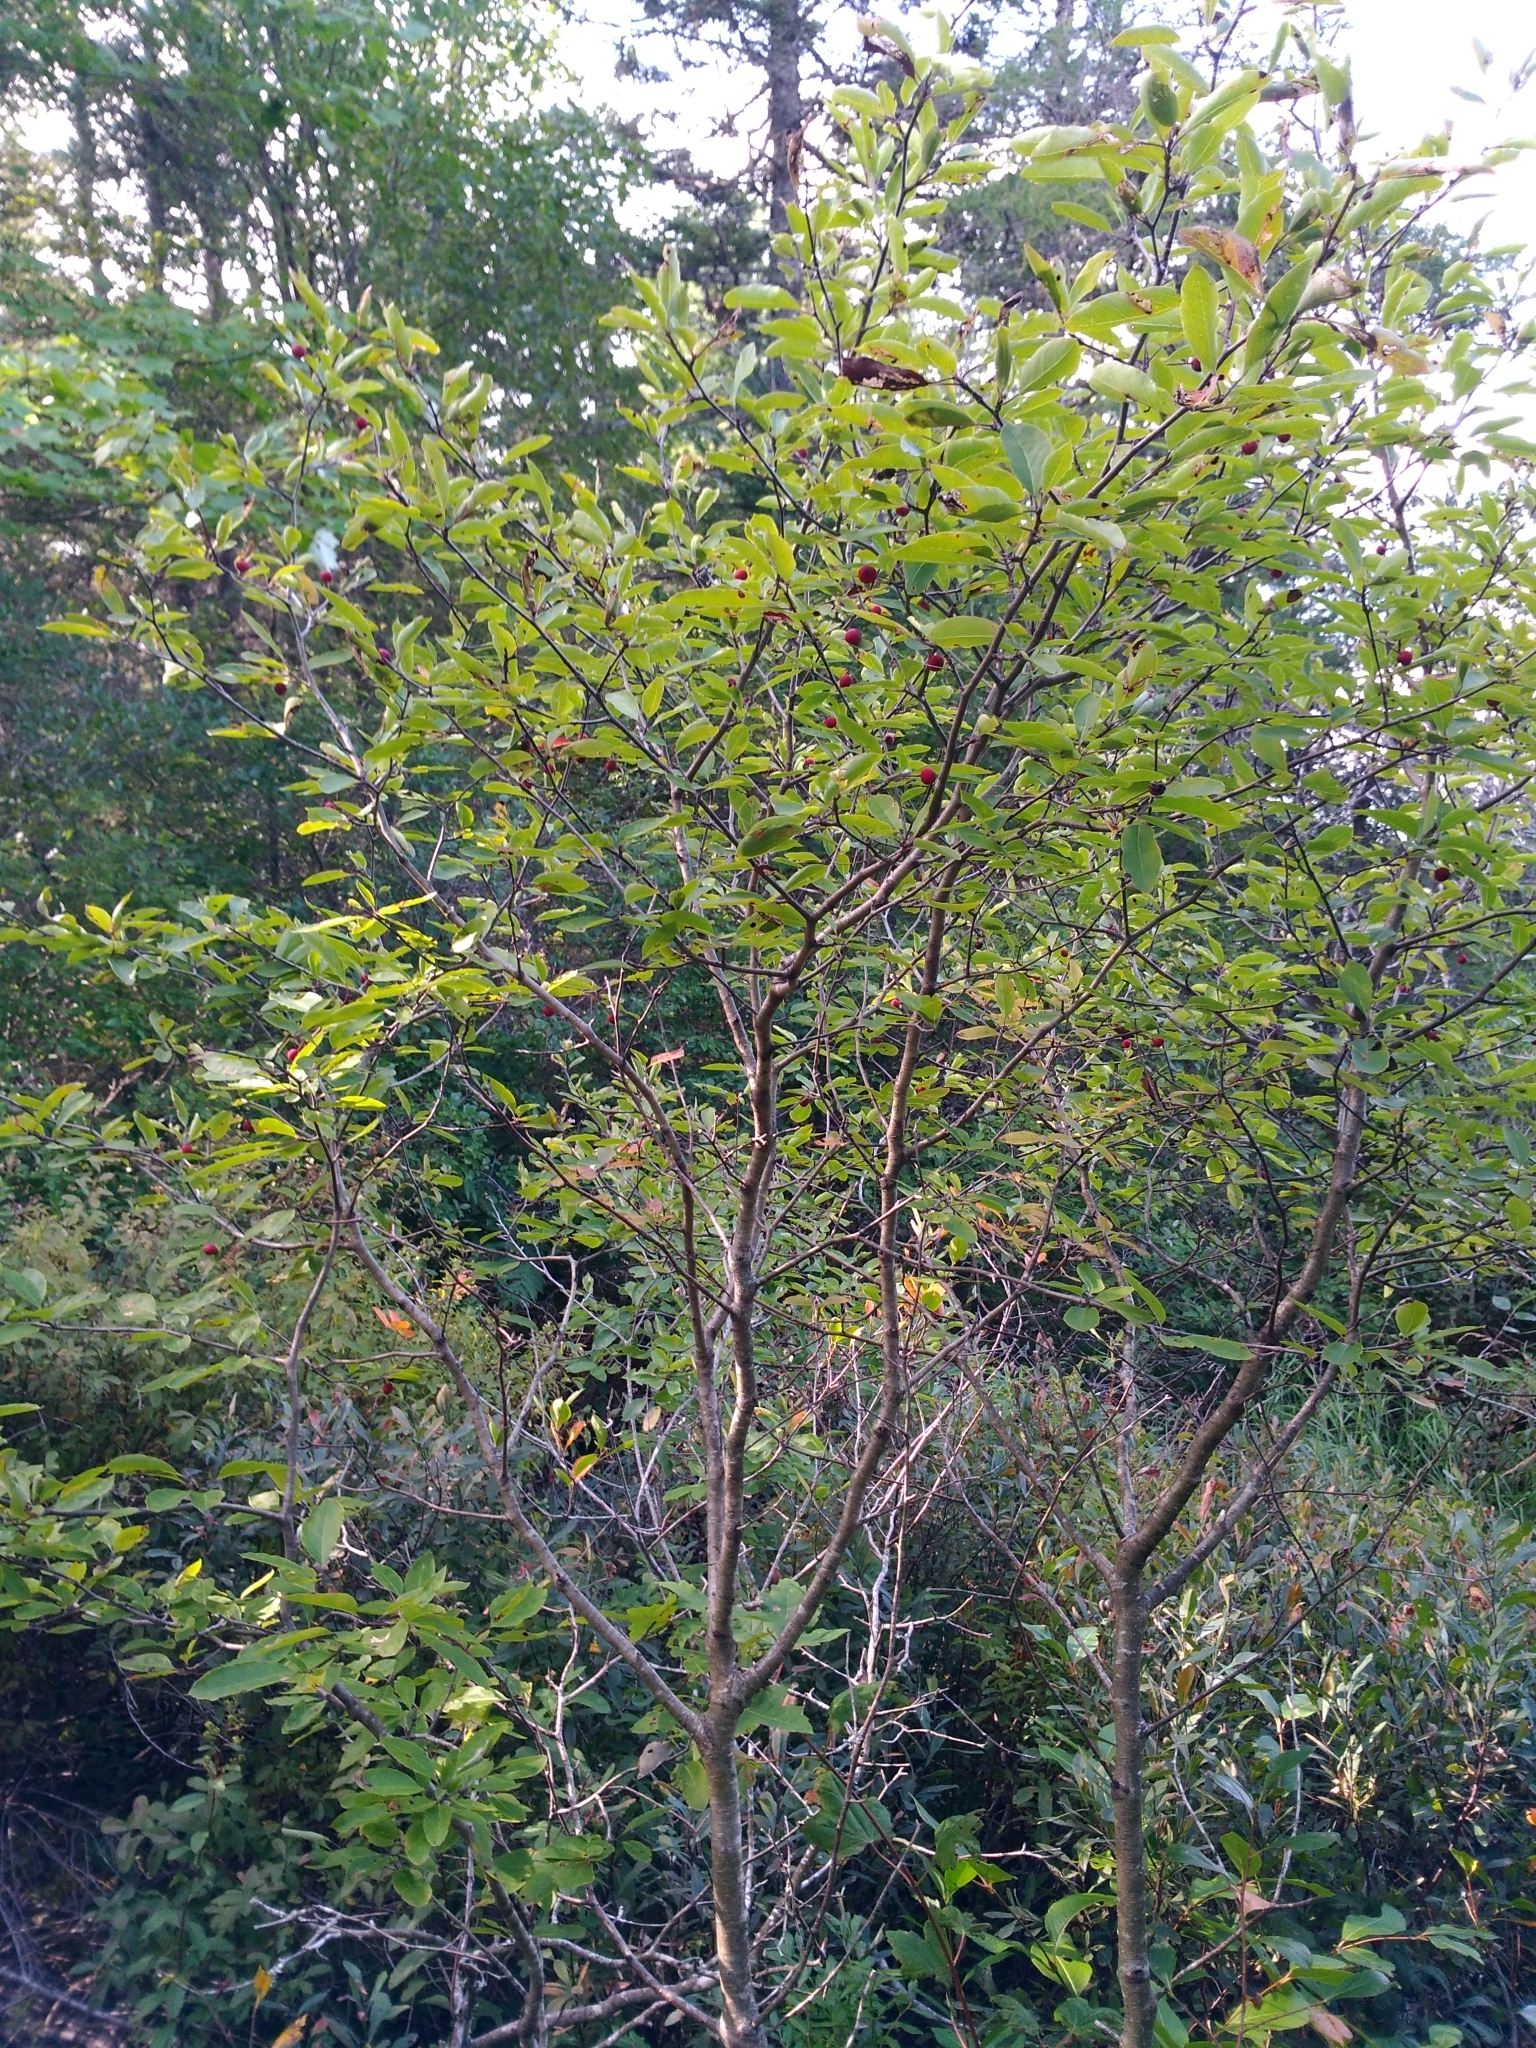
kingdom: Plantae
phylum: Tracheophyta
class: Magnoliopsida
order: Aquifoliales
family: Aquifoliaceae
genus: Ilex
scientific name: Ilex mucronata
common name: Catberry
